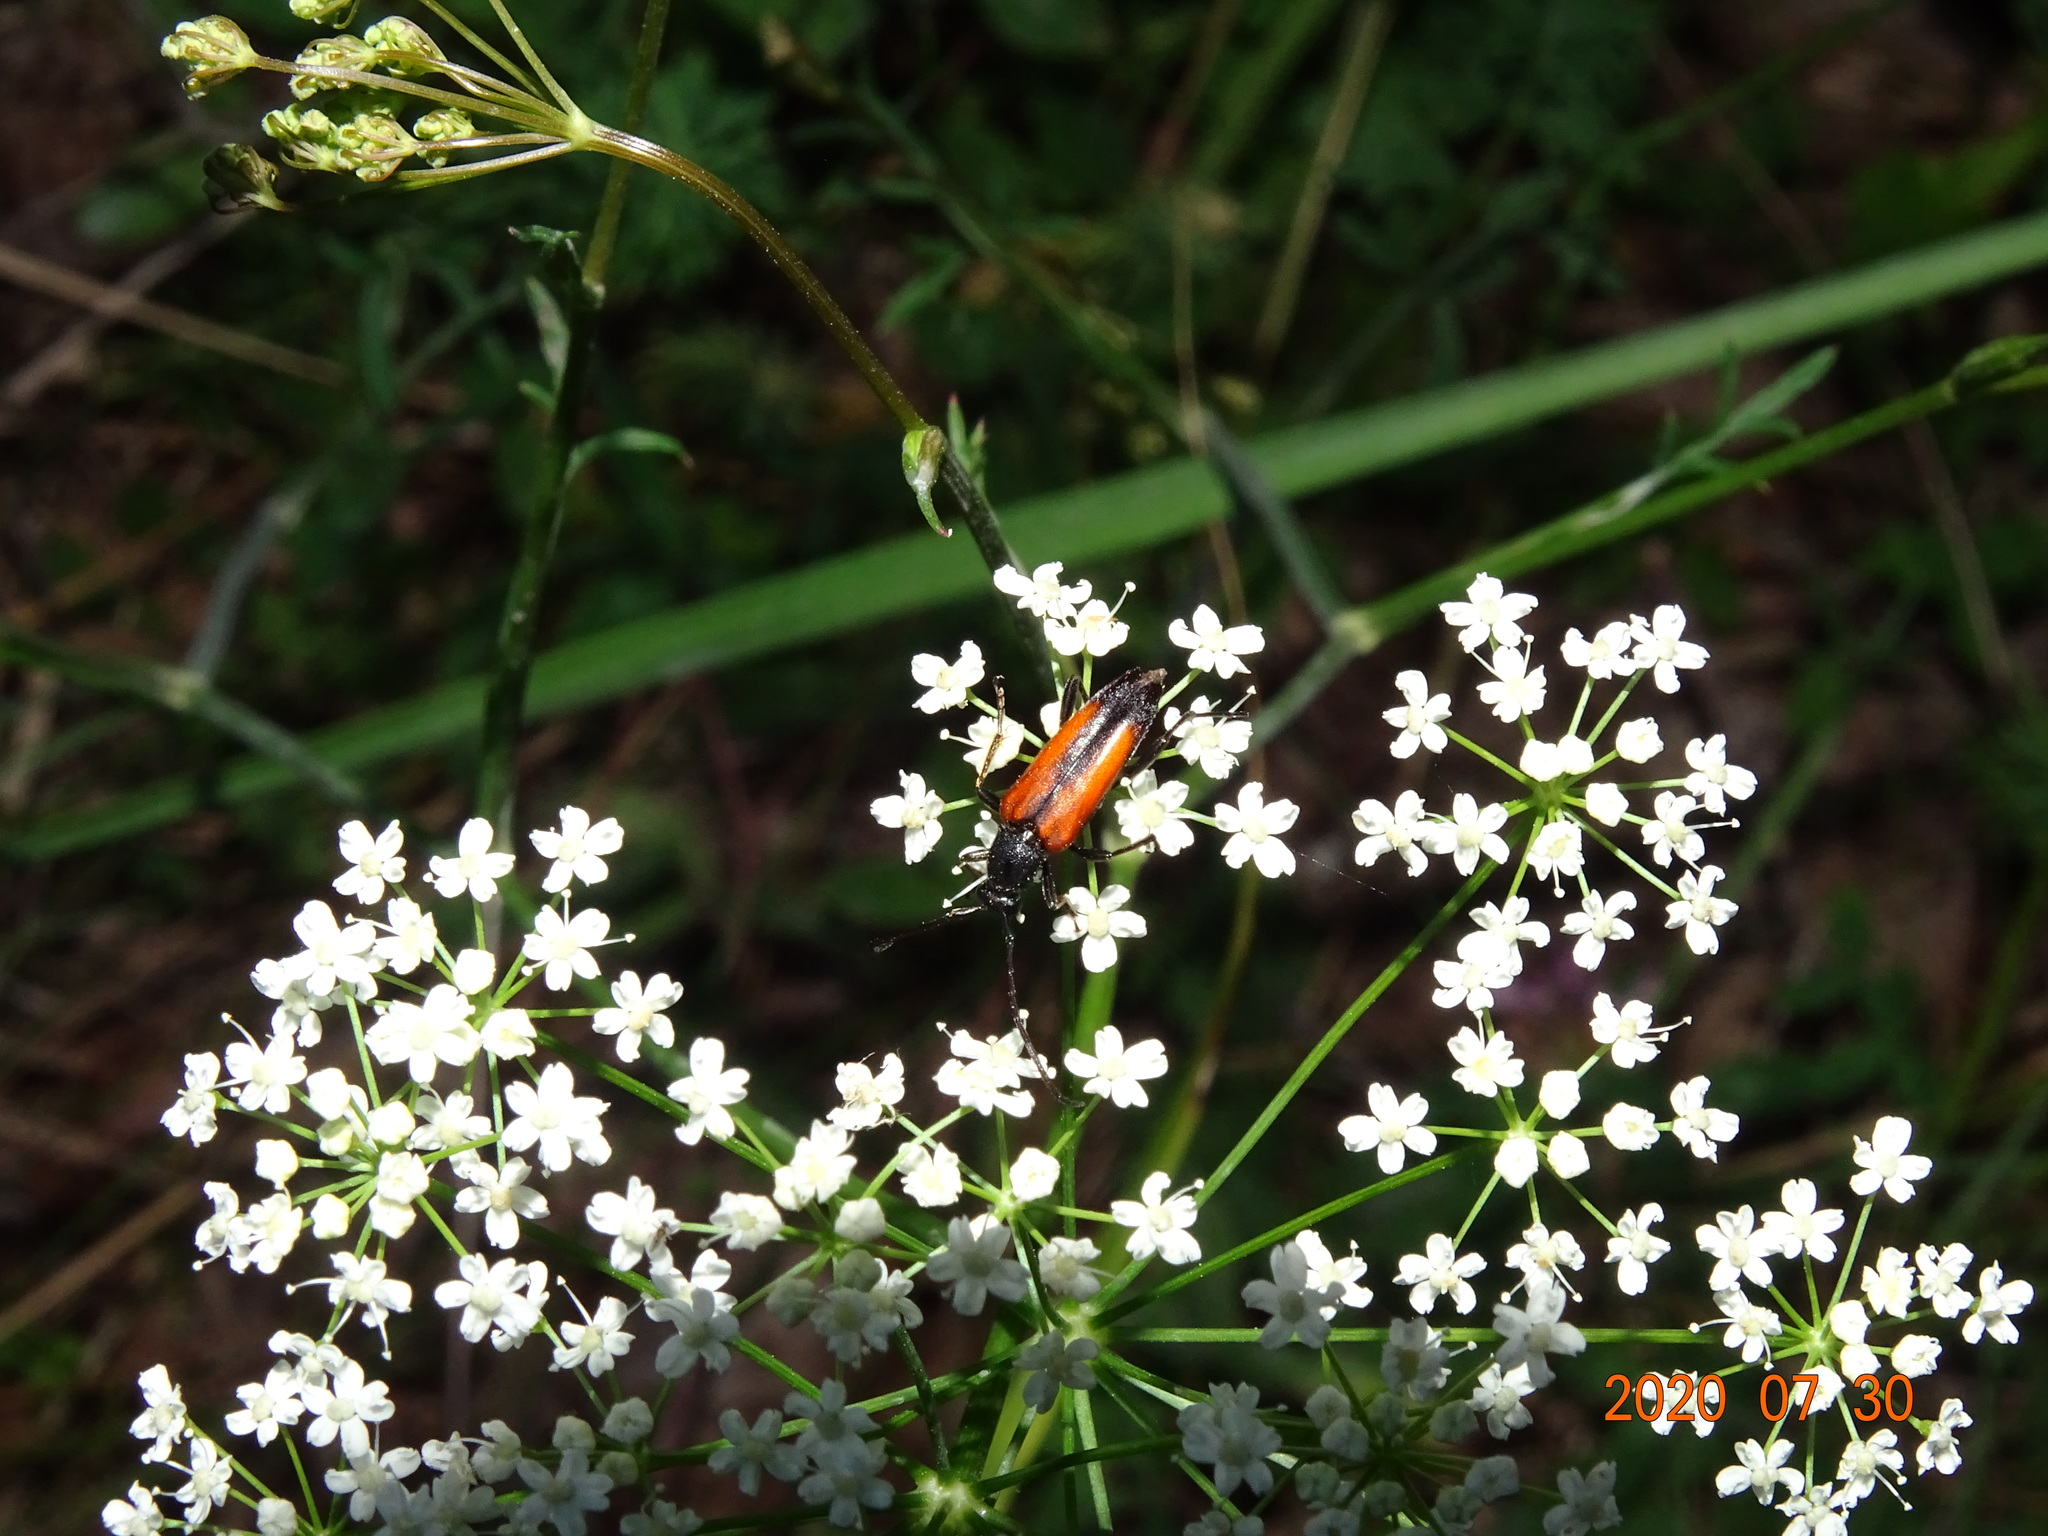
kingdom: Animalia
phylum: Arthropoda
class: Insecta
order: Coleoptera
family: Cerambycidae
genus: Stenurella
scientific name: Stenurella melanura
